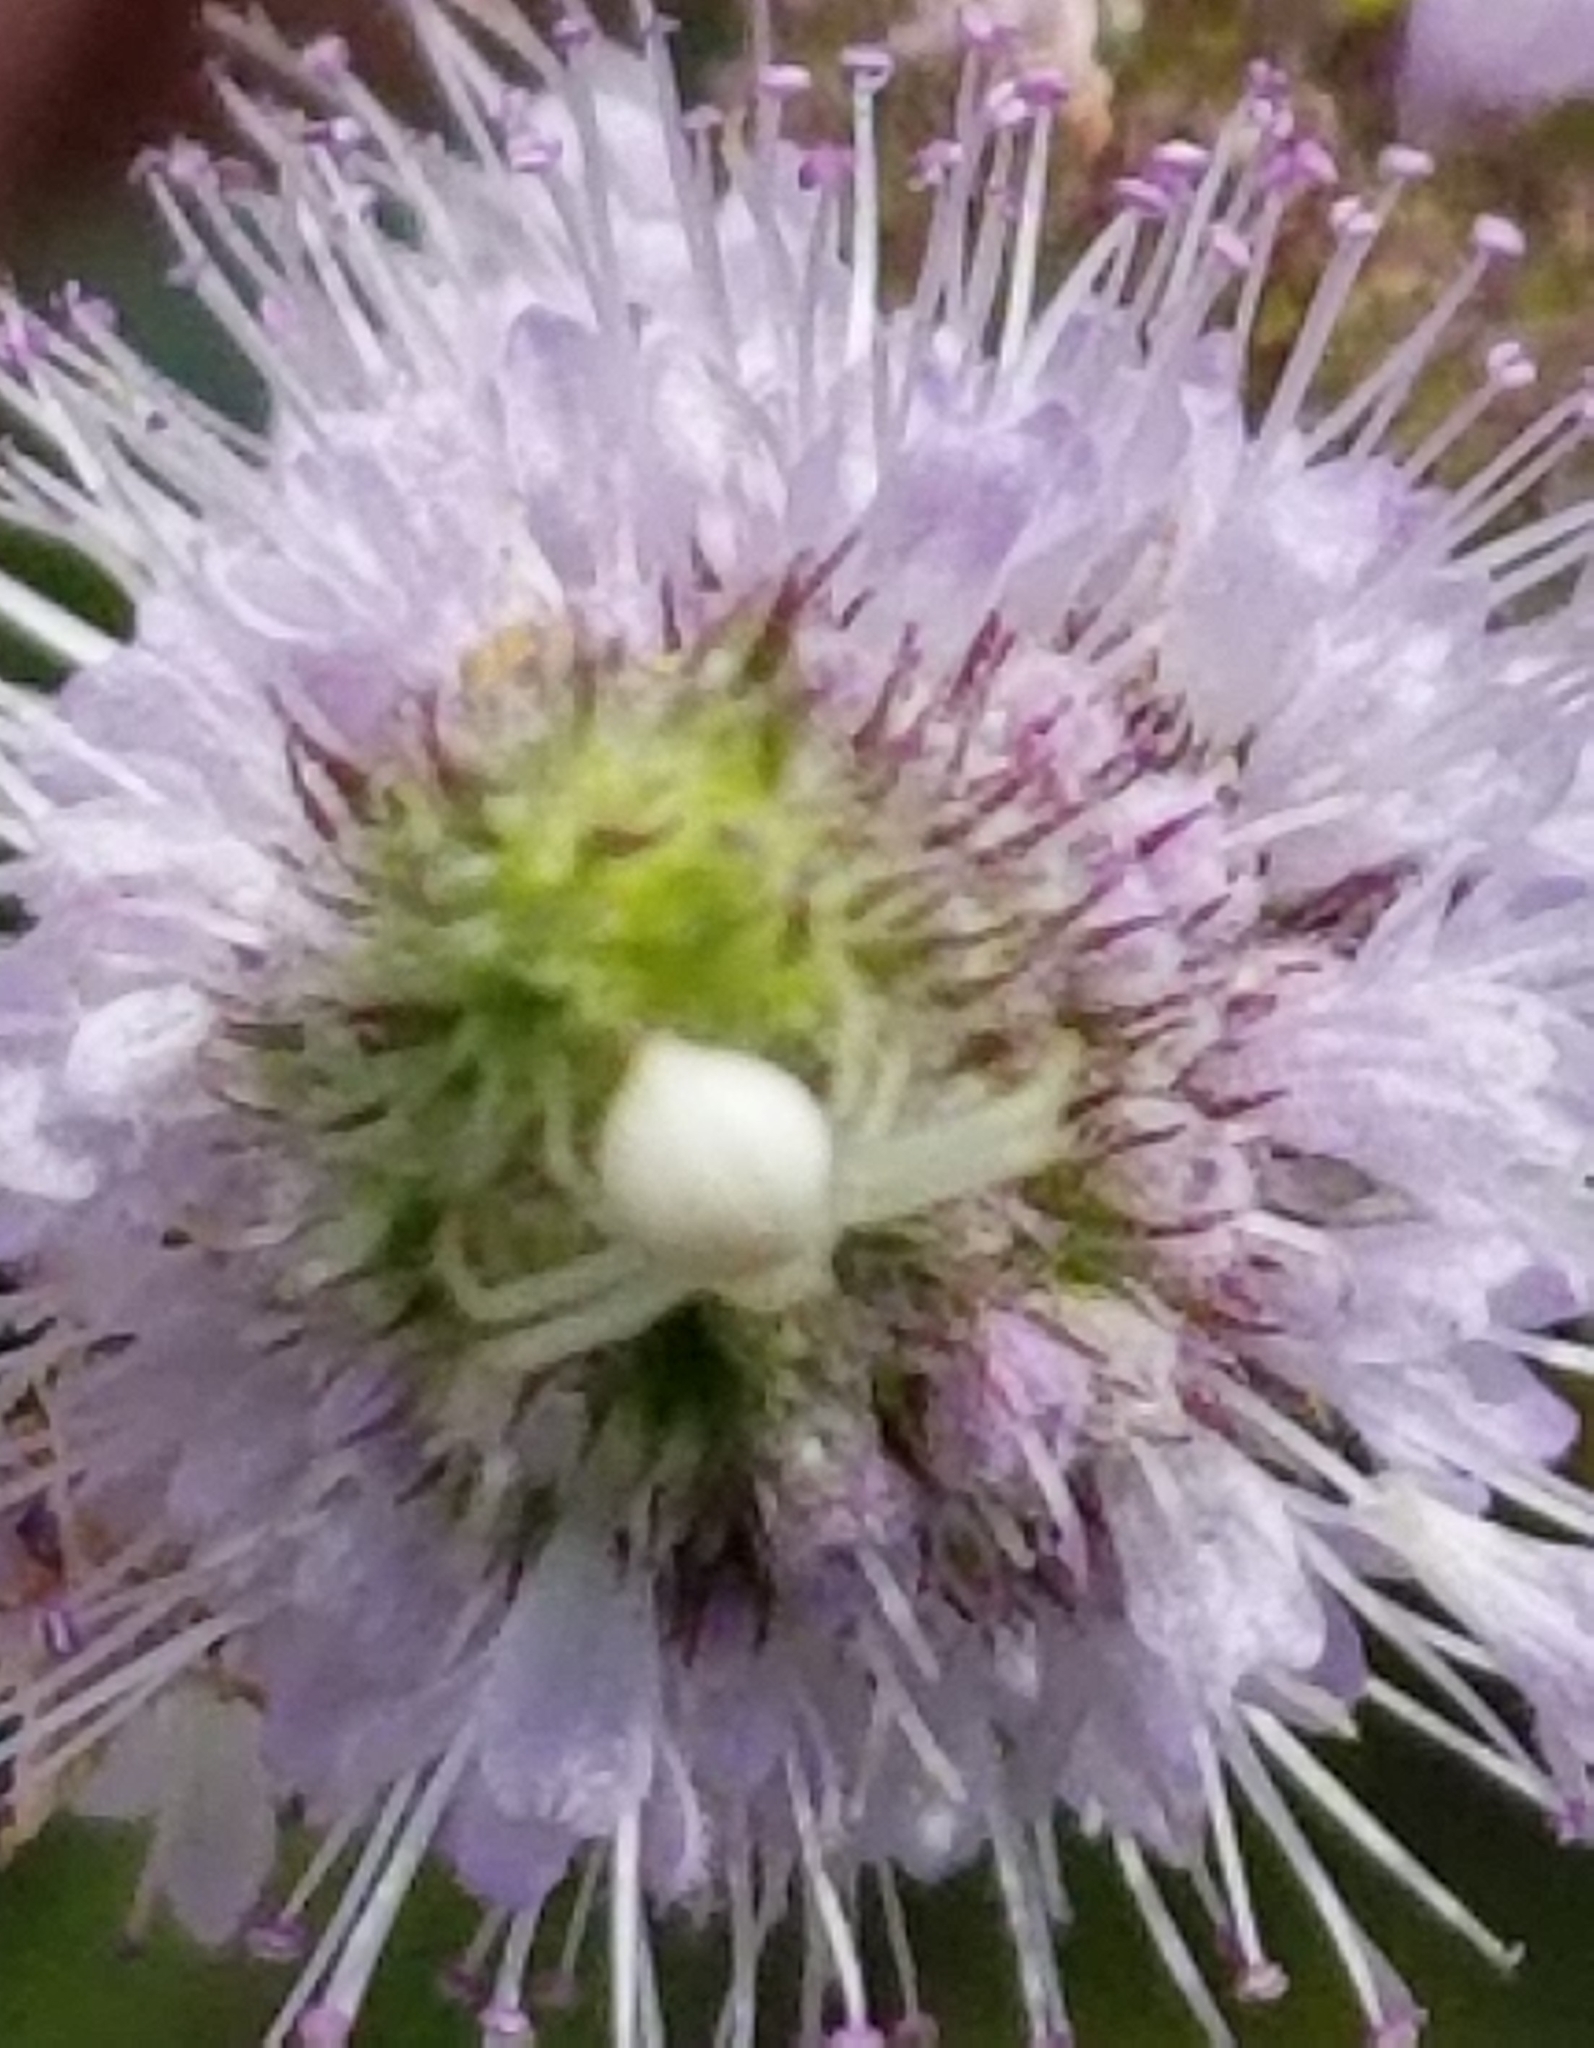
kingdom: Animalia
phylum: Arthropoda
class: Arachnida
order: Araneae
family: Thomisidae
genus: Misumena
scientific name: Misumena vatia
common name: Goldenrod crab spider
